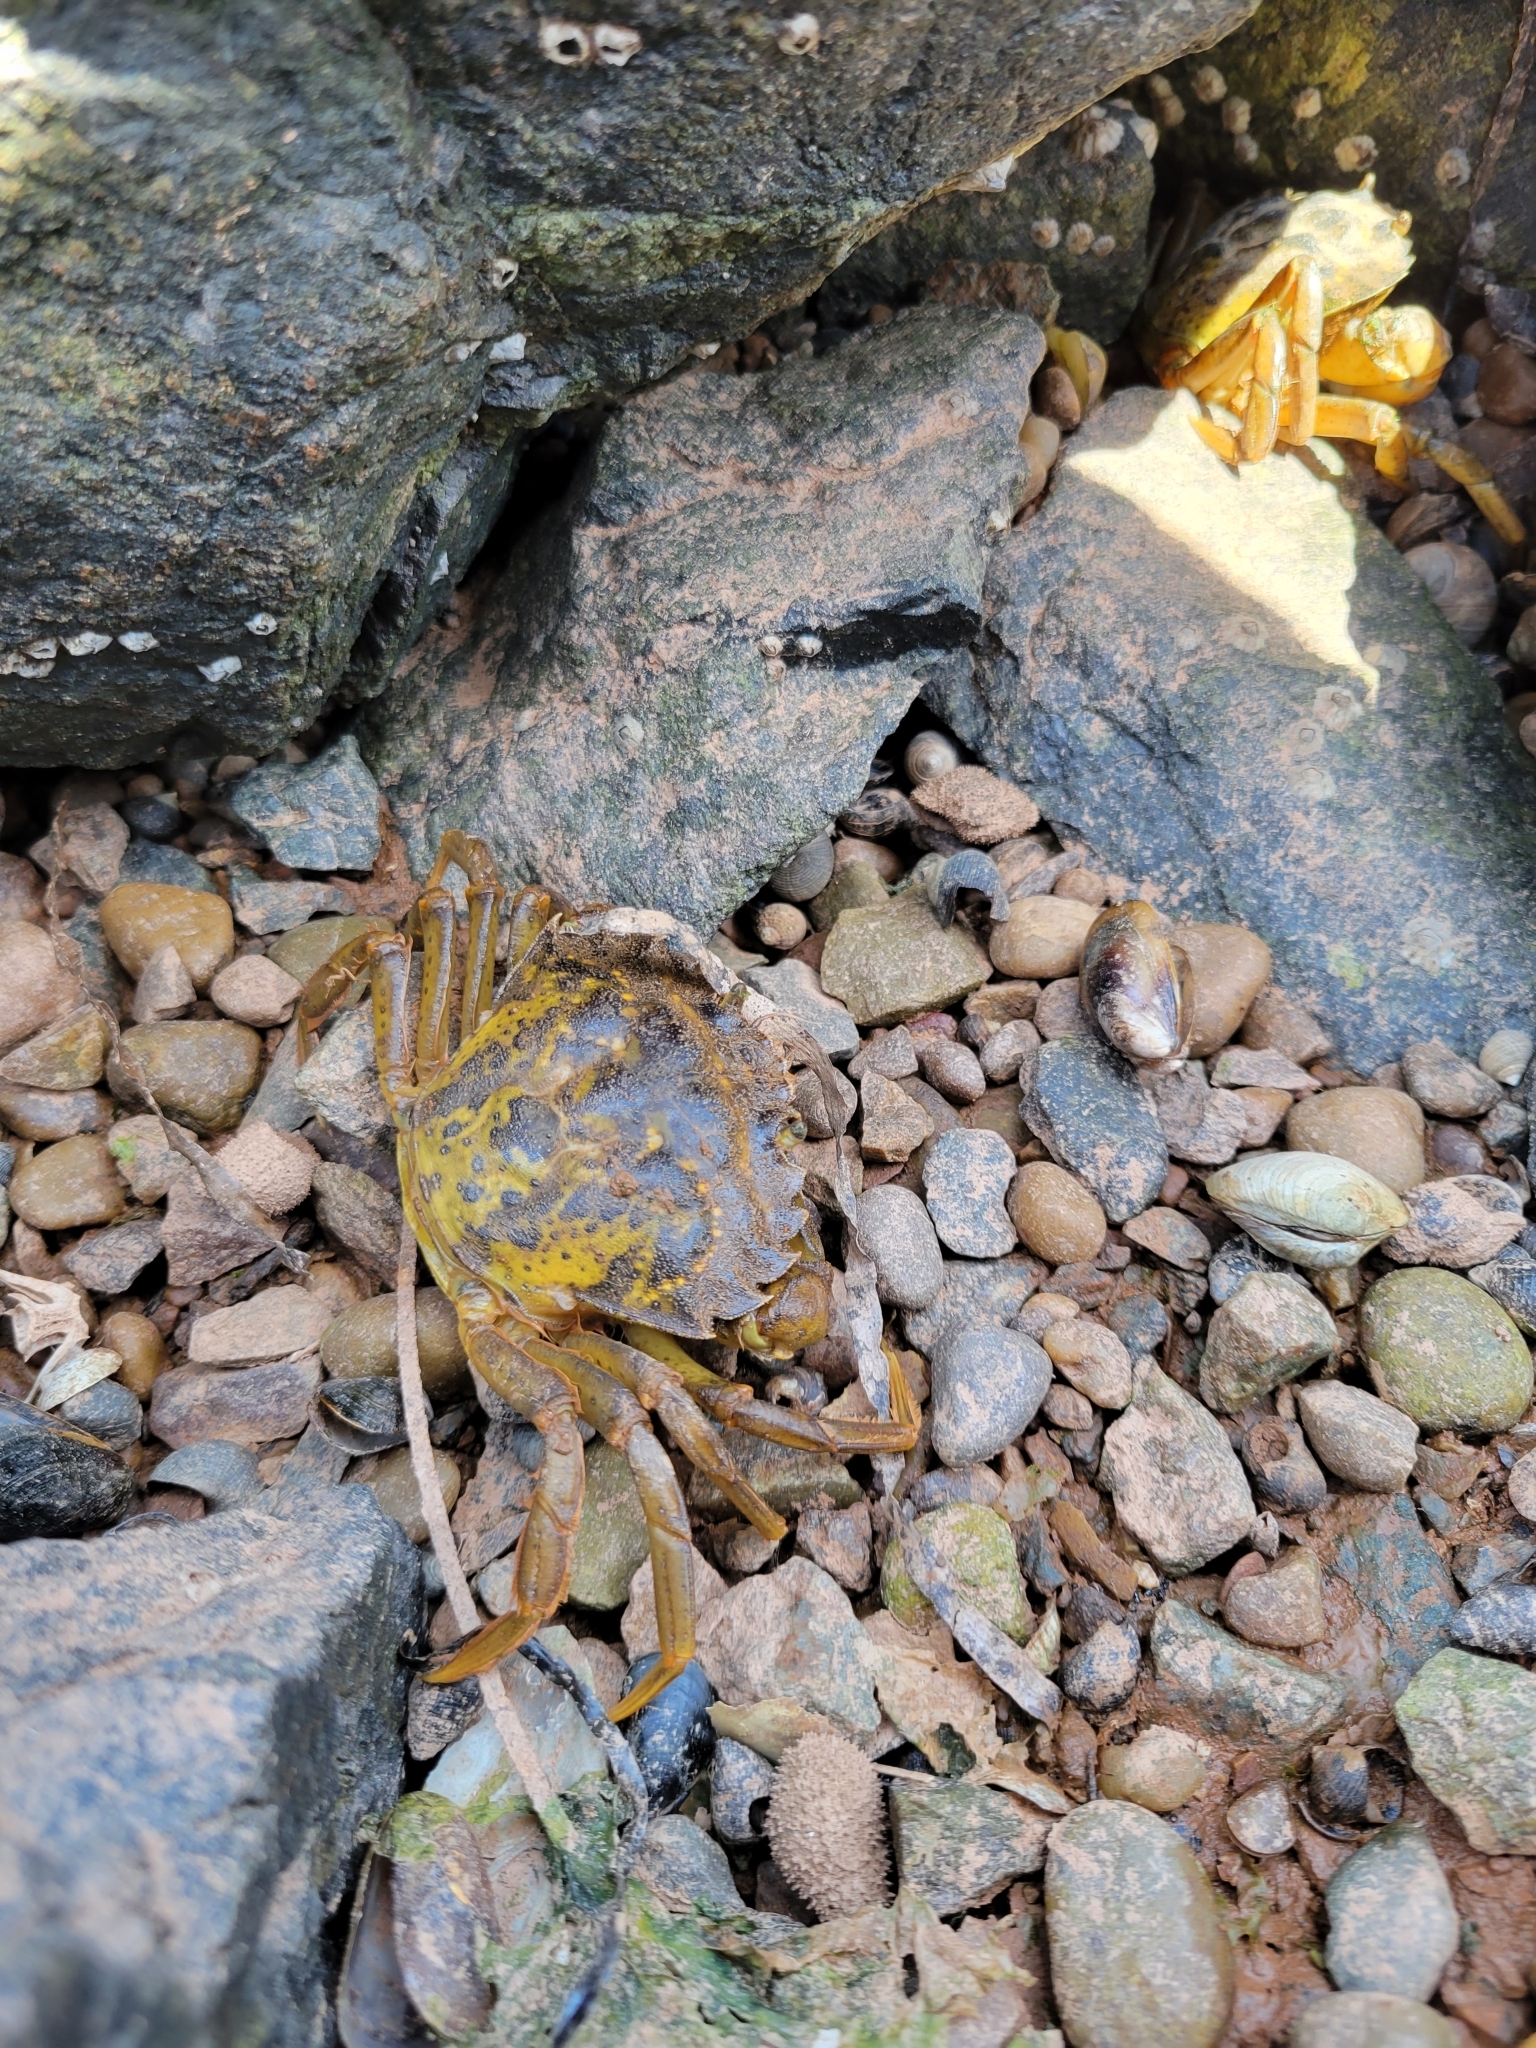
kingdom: Animalia
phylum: Arthropoda
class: Malacostraca
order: Decapoda
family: Carcinidae
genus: Carcinus
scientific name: Carcinus maenas
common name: European green crab
